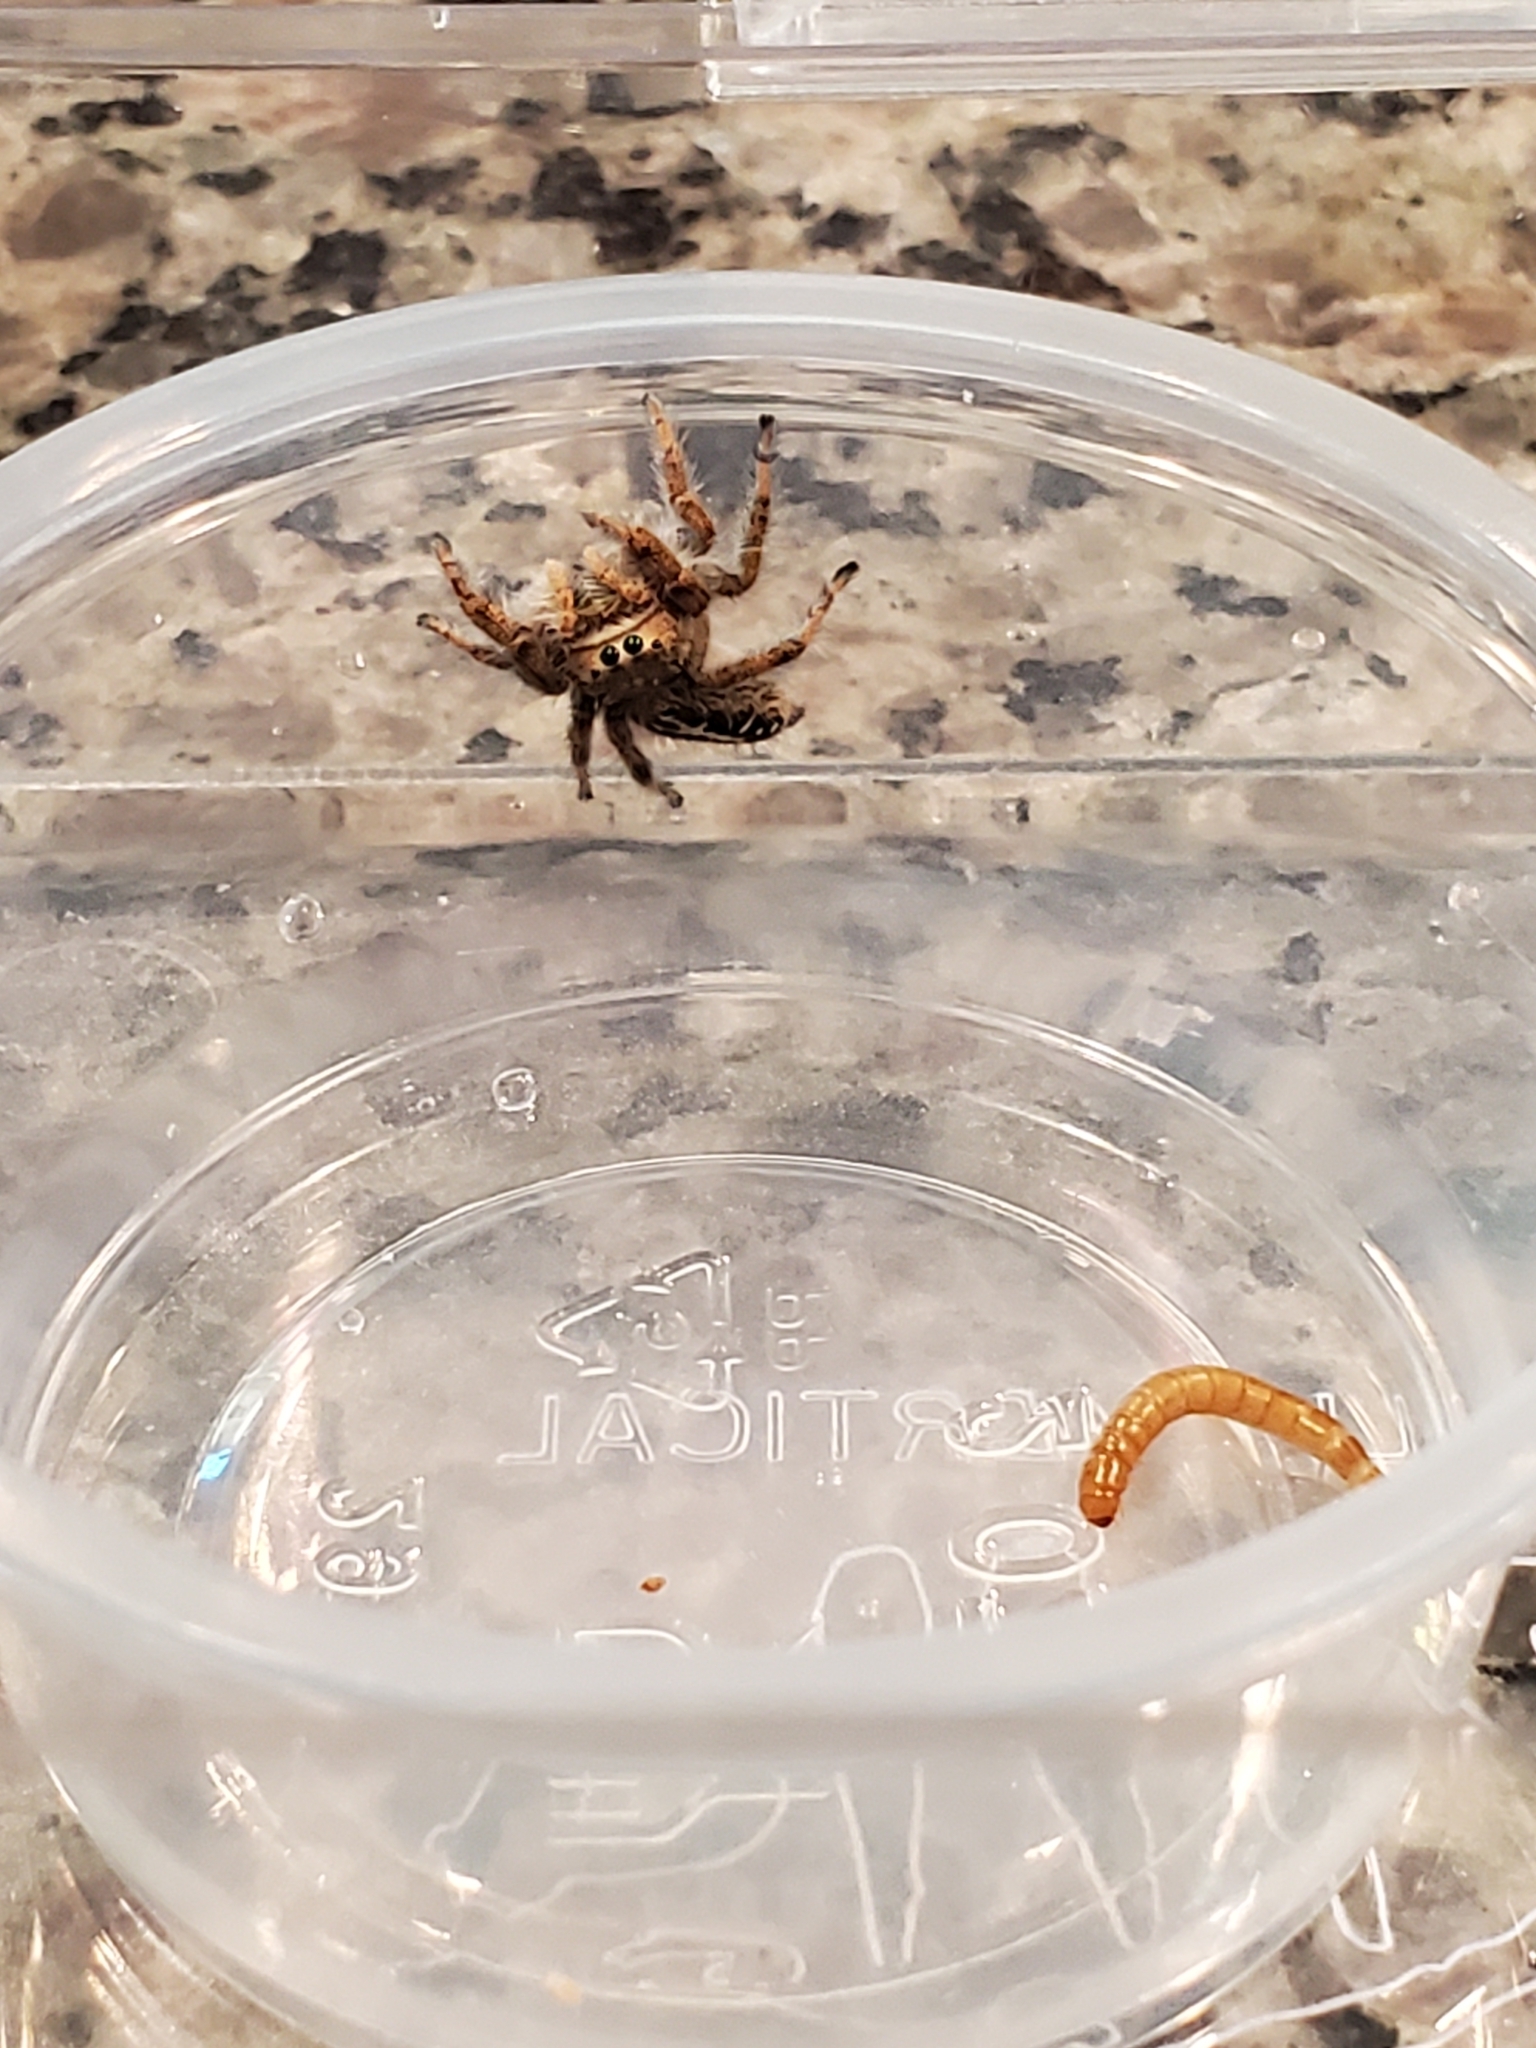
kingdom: Animalia
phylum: Arthropoda
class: Arachnida
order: Araneae
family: Salticidae
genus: Phidippus
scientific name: Phidippus texanus
